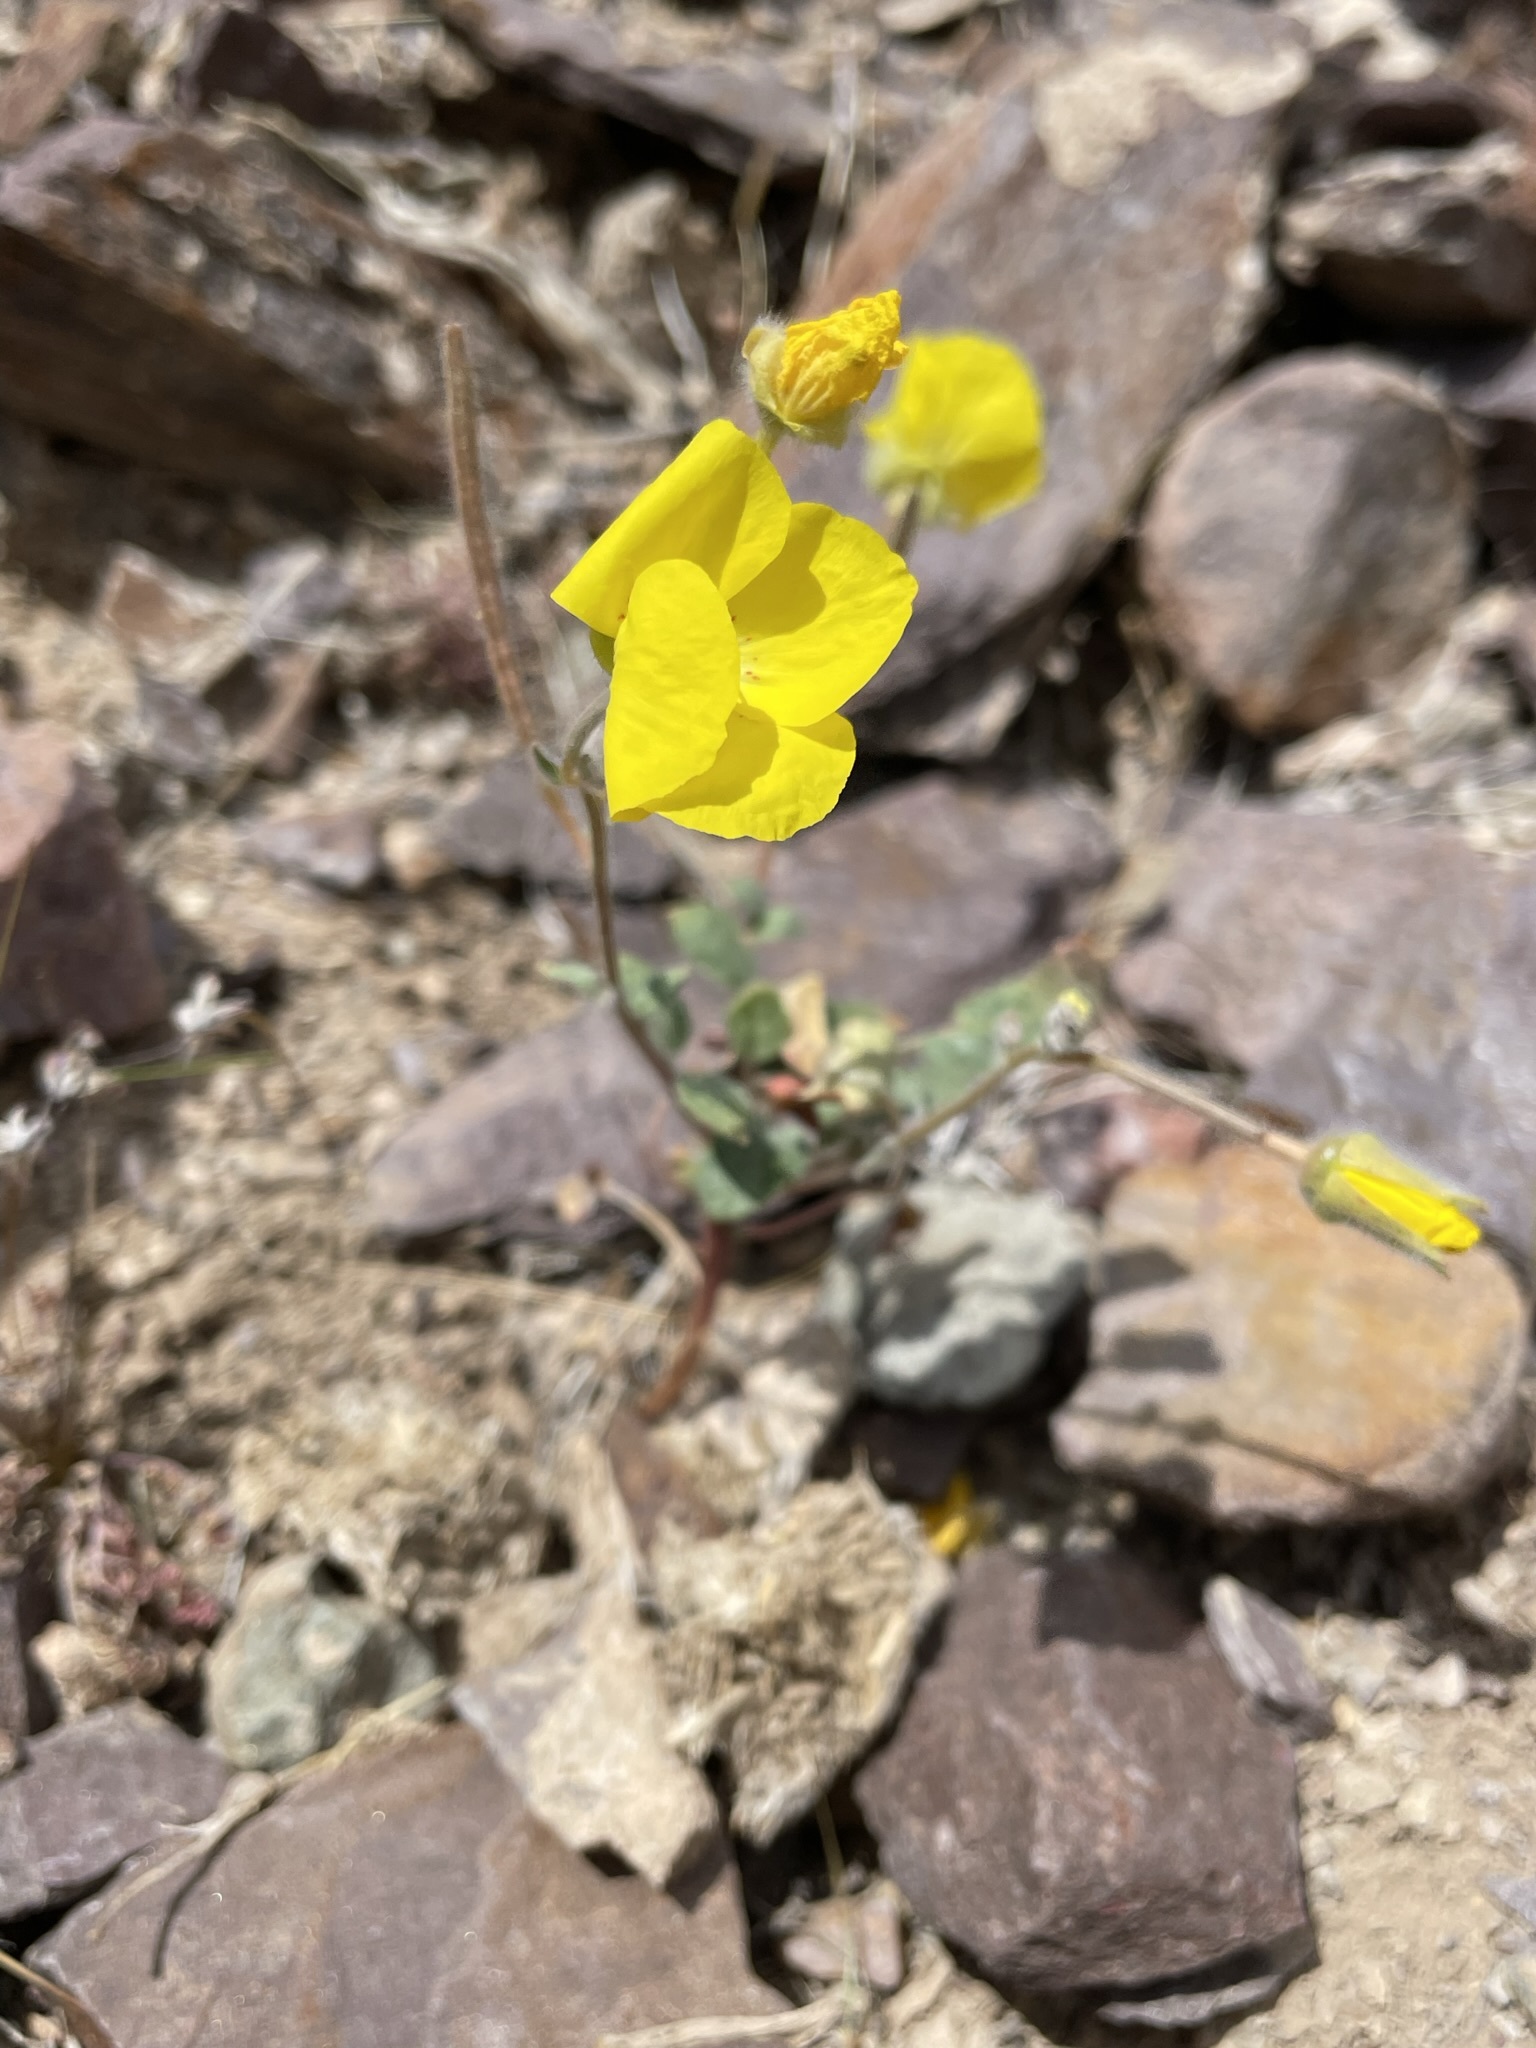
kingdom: Plantae
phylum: Tracheophyta
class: Magnoliopsida
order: Myrtales
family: Onagraceae
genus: Chylismia
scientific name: Chylismia brevipes
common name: Yellow cups
